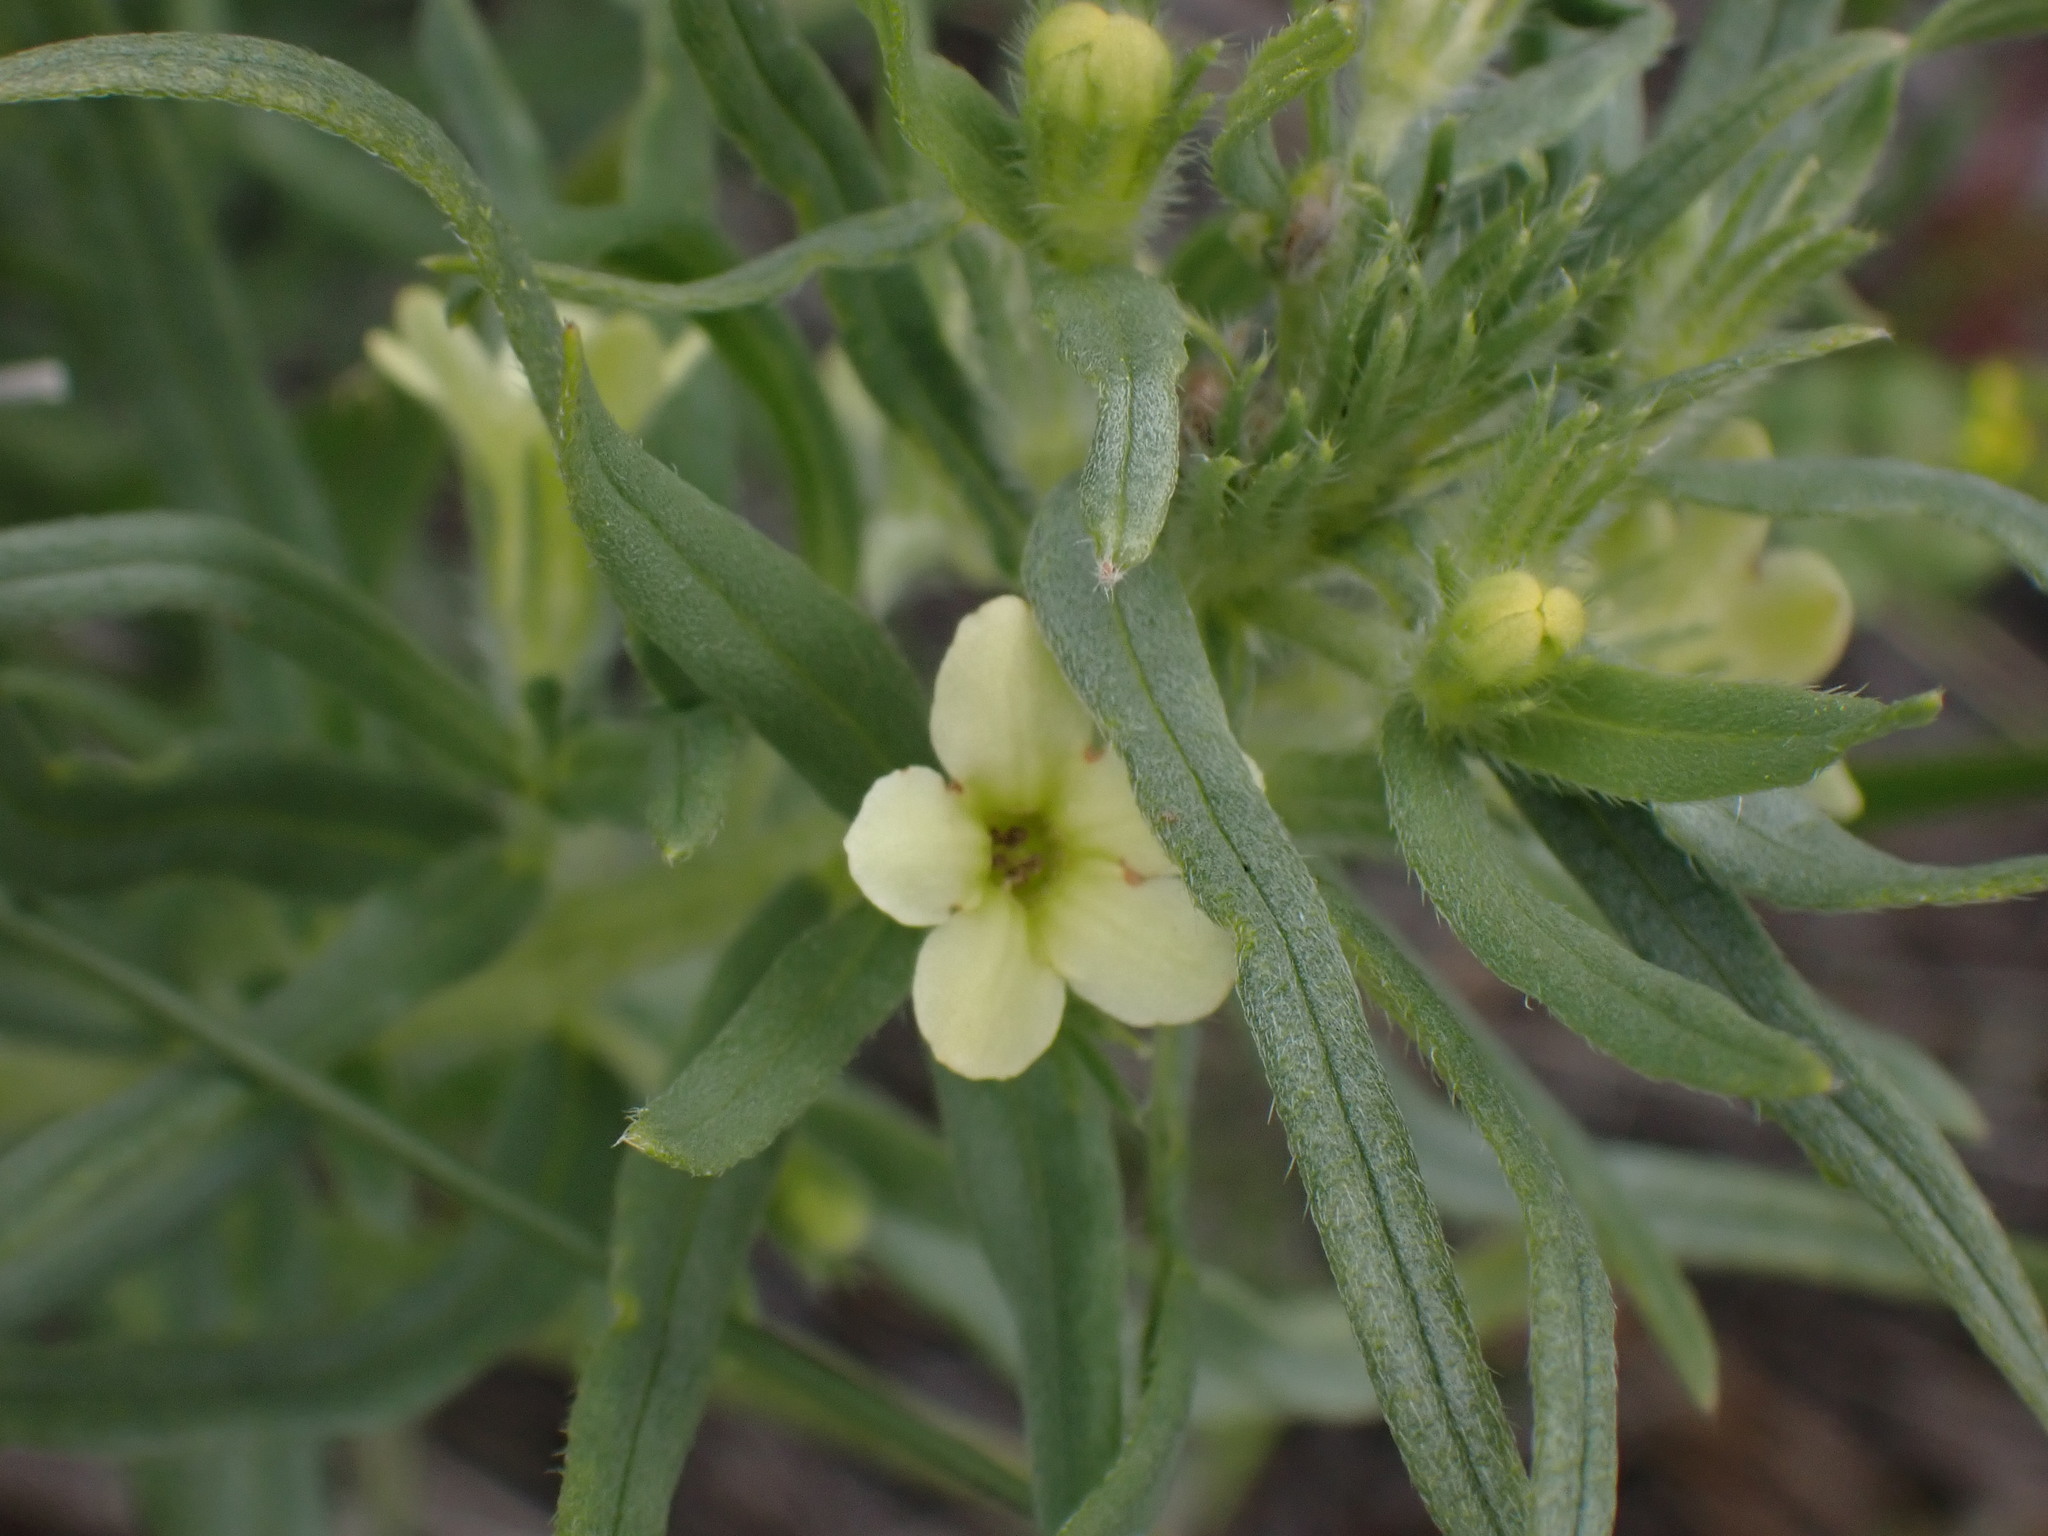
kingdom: Plantae
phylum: Tracheophyta
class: Magnoliopsida
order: Boraginales
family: Boraginaceae
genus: Lithospermum
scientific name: Lithospermum ruderale
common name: Western gromwell
